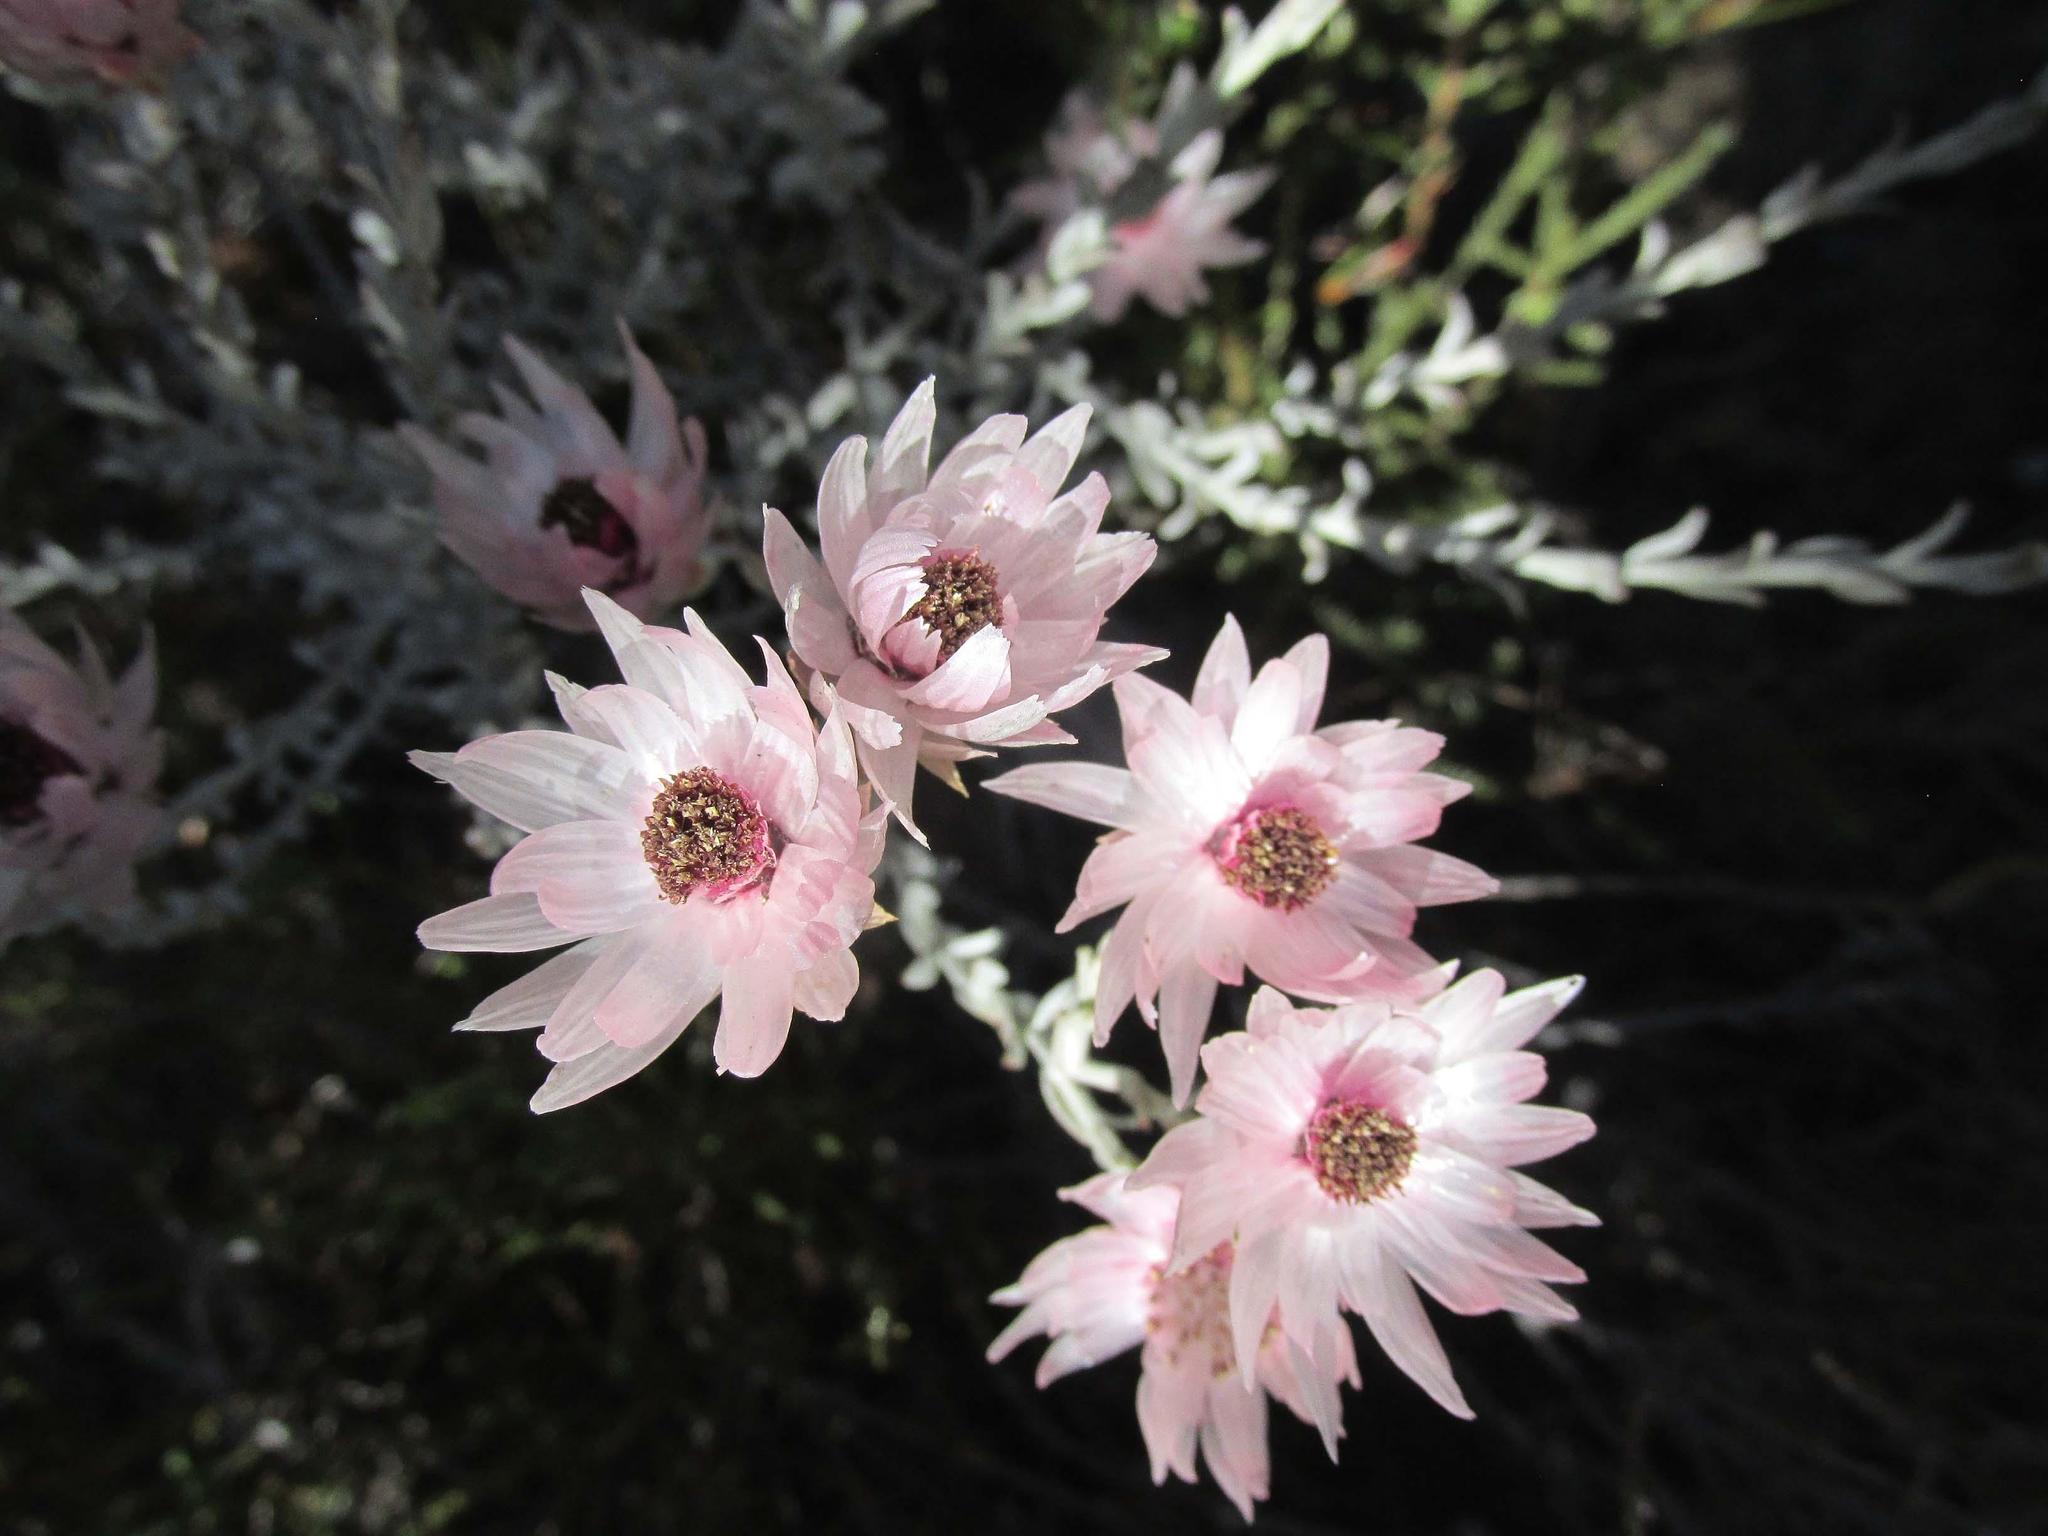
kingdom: Plantae
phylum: Tracheophyta
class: Magnoliopsida
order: Asterales
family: Asteraceae
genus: Syncarpha
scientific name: Syncarpha canescens
